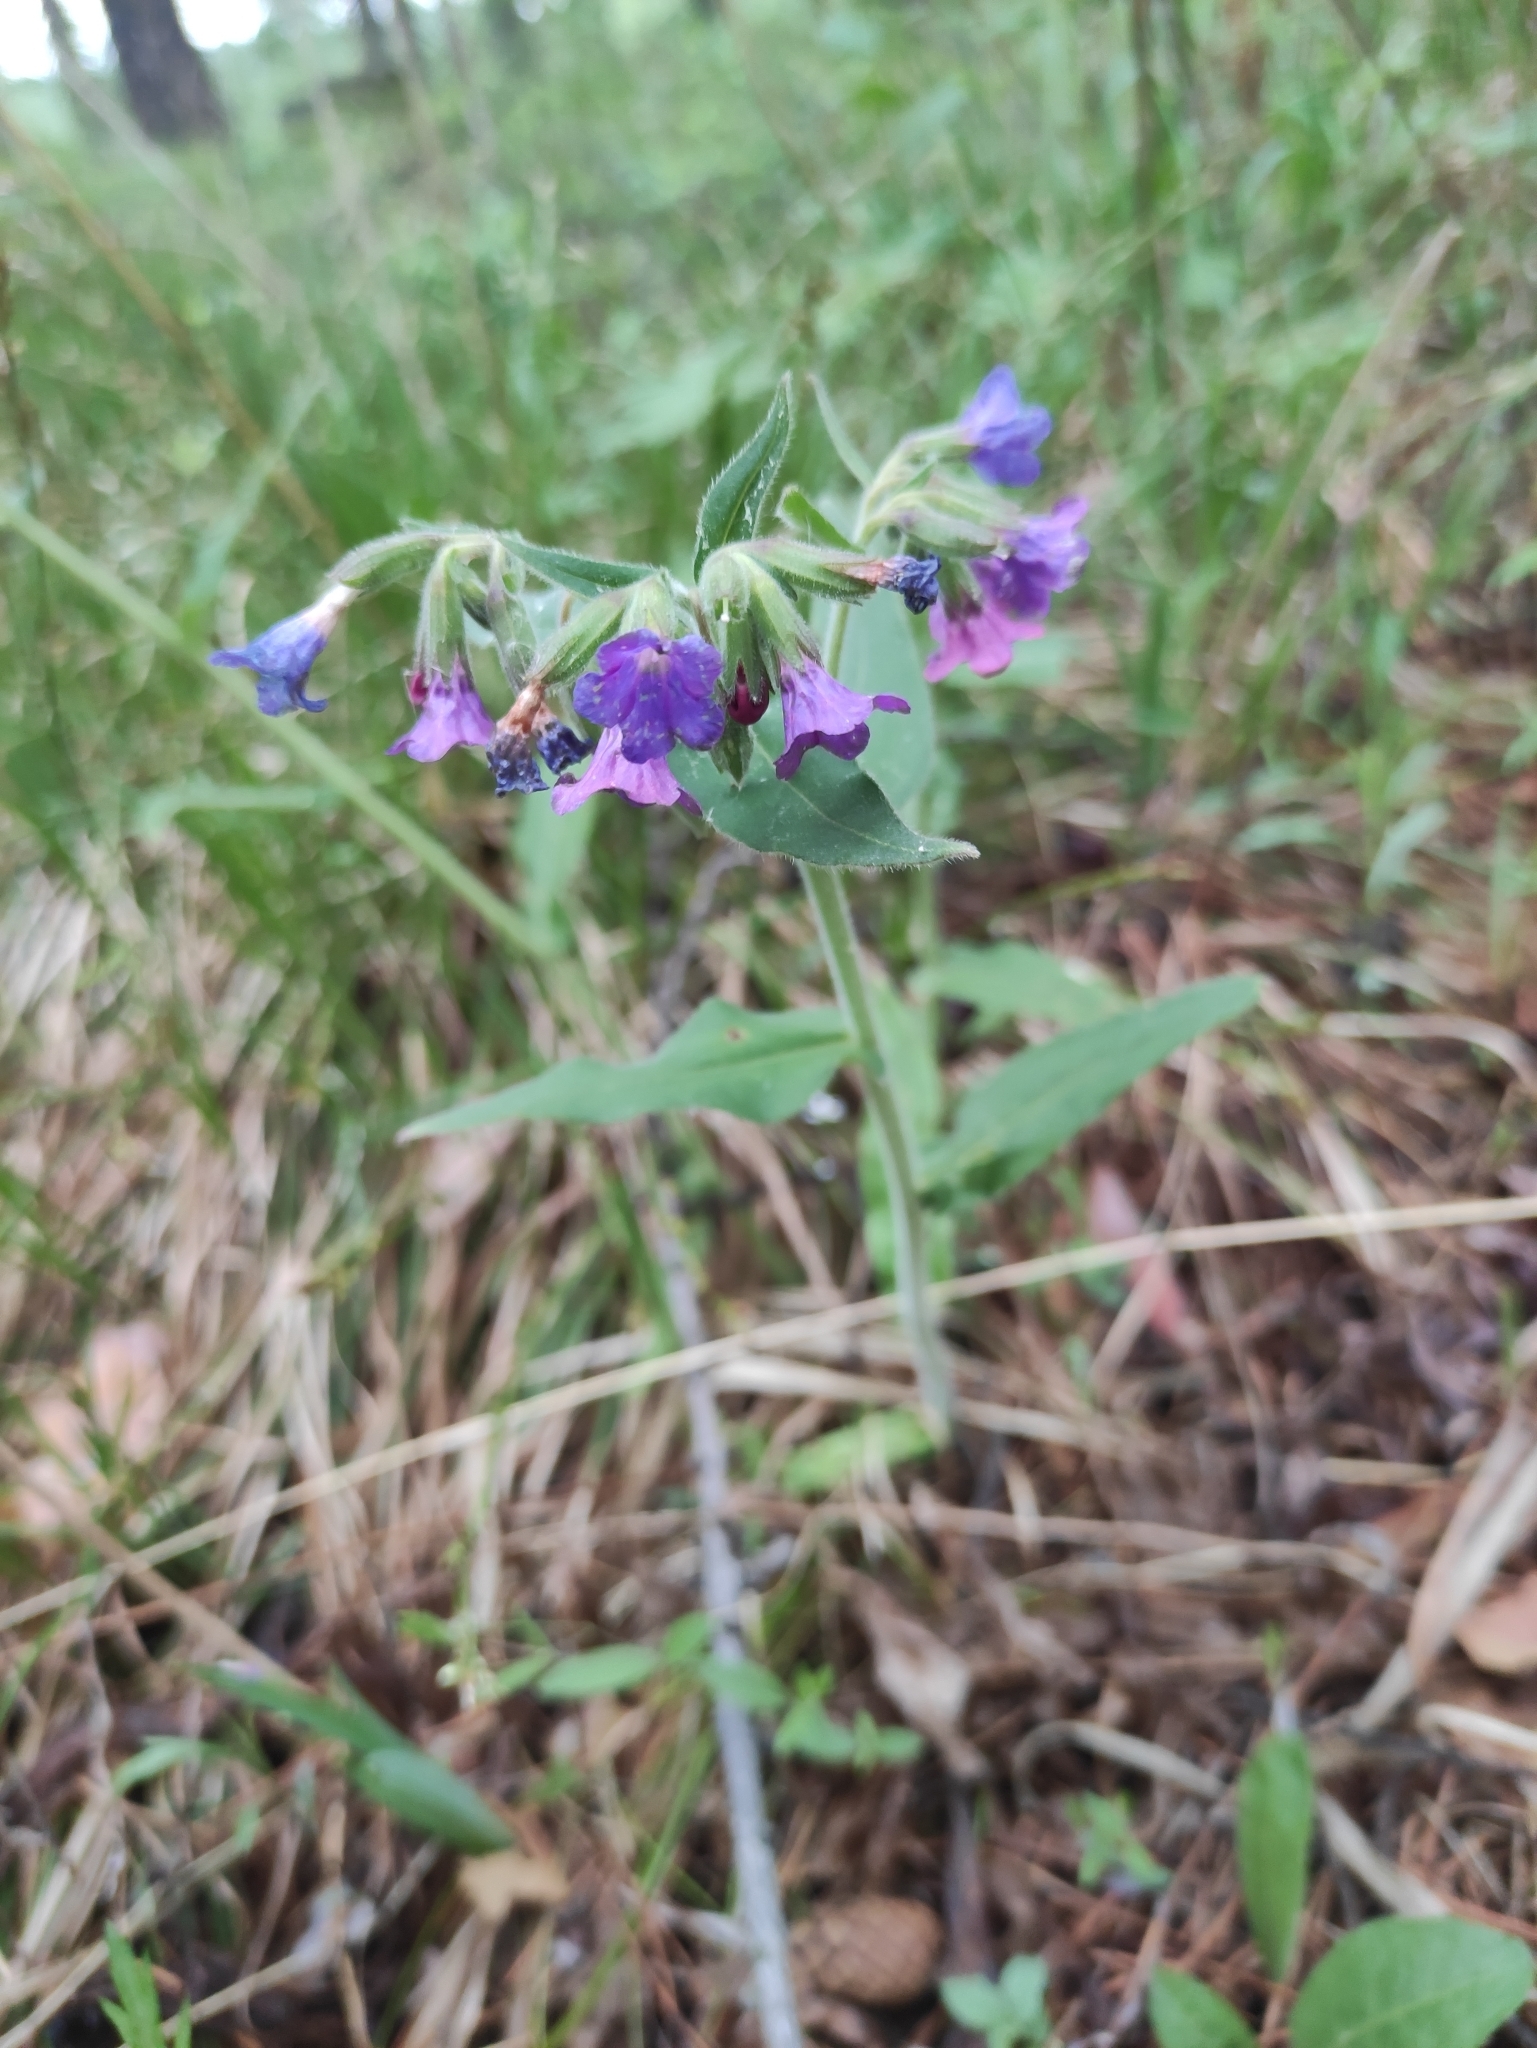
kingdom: Plantae
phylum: Tracheophyta
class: Magnoliopsida
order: Boraginales
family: Boraginaceae
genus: Pulmonaria
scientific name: Pulmonaria mollis
